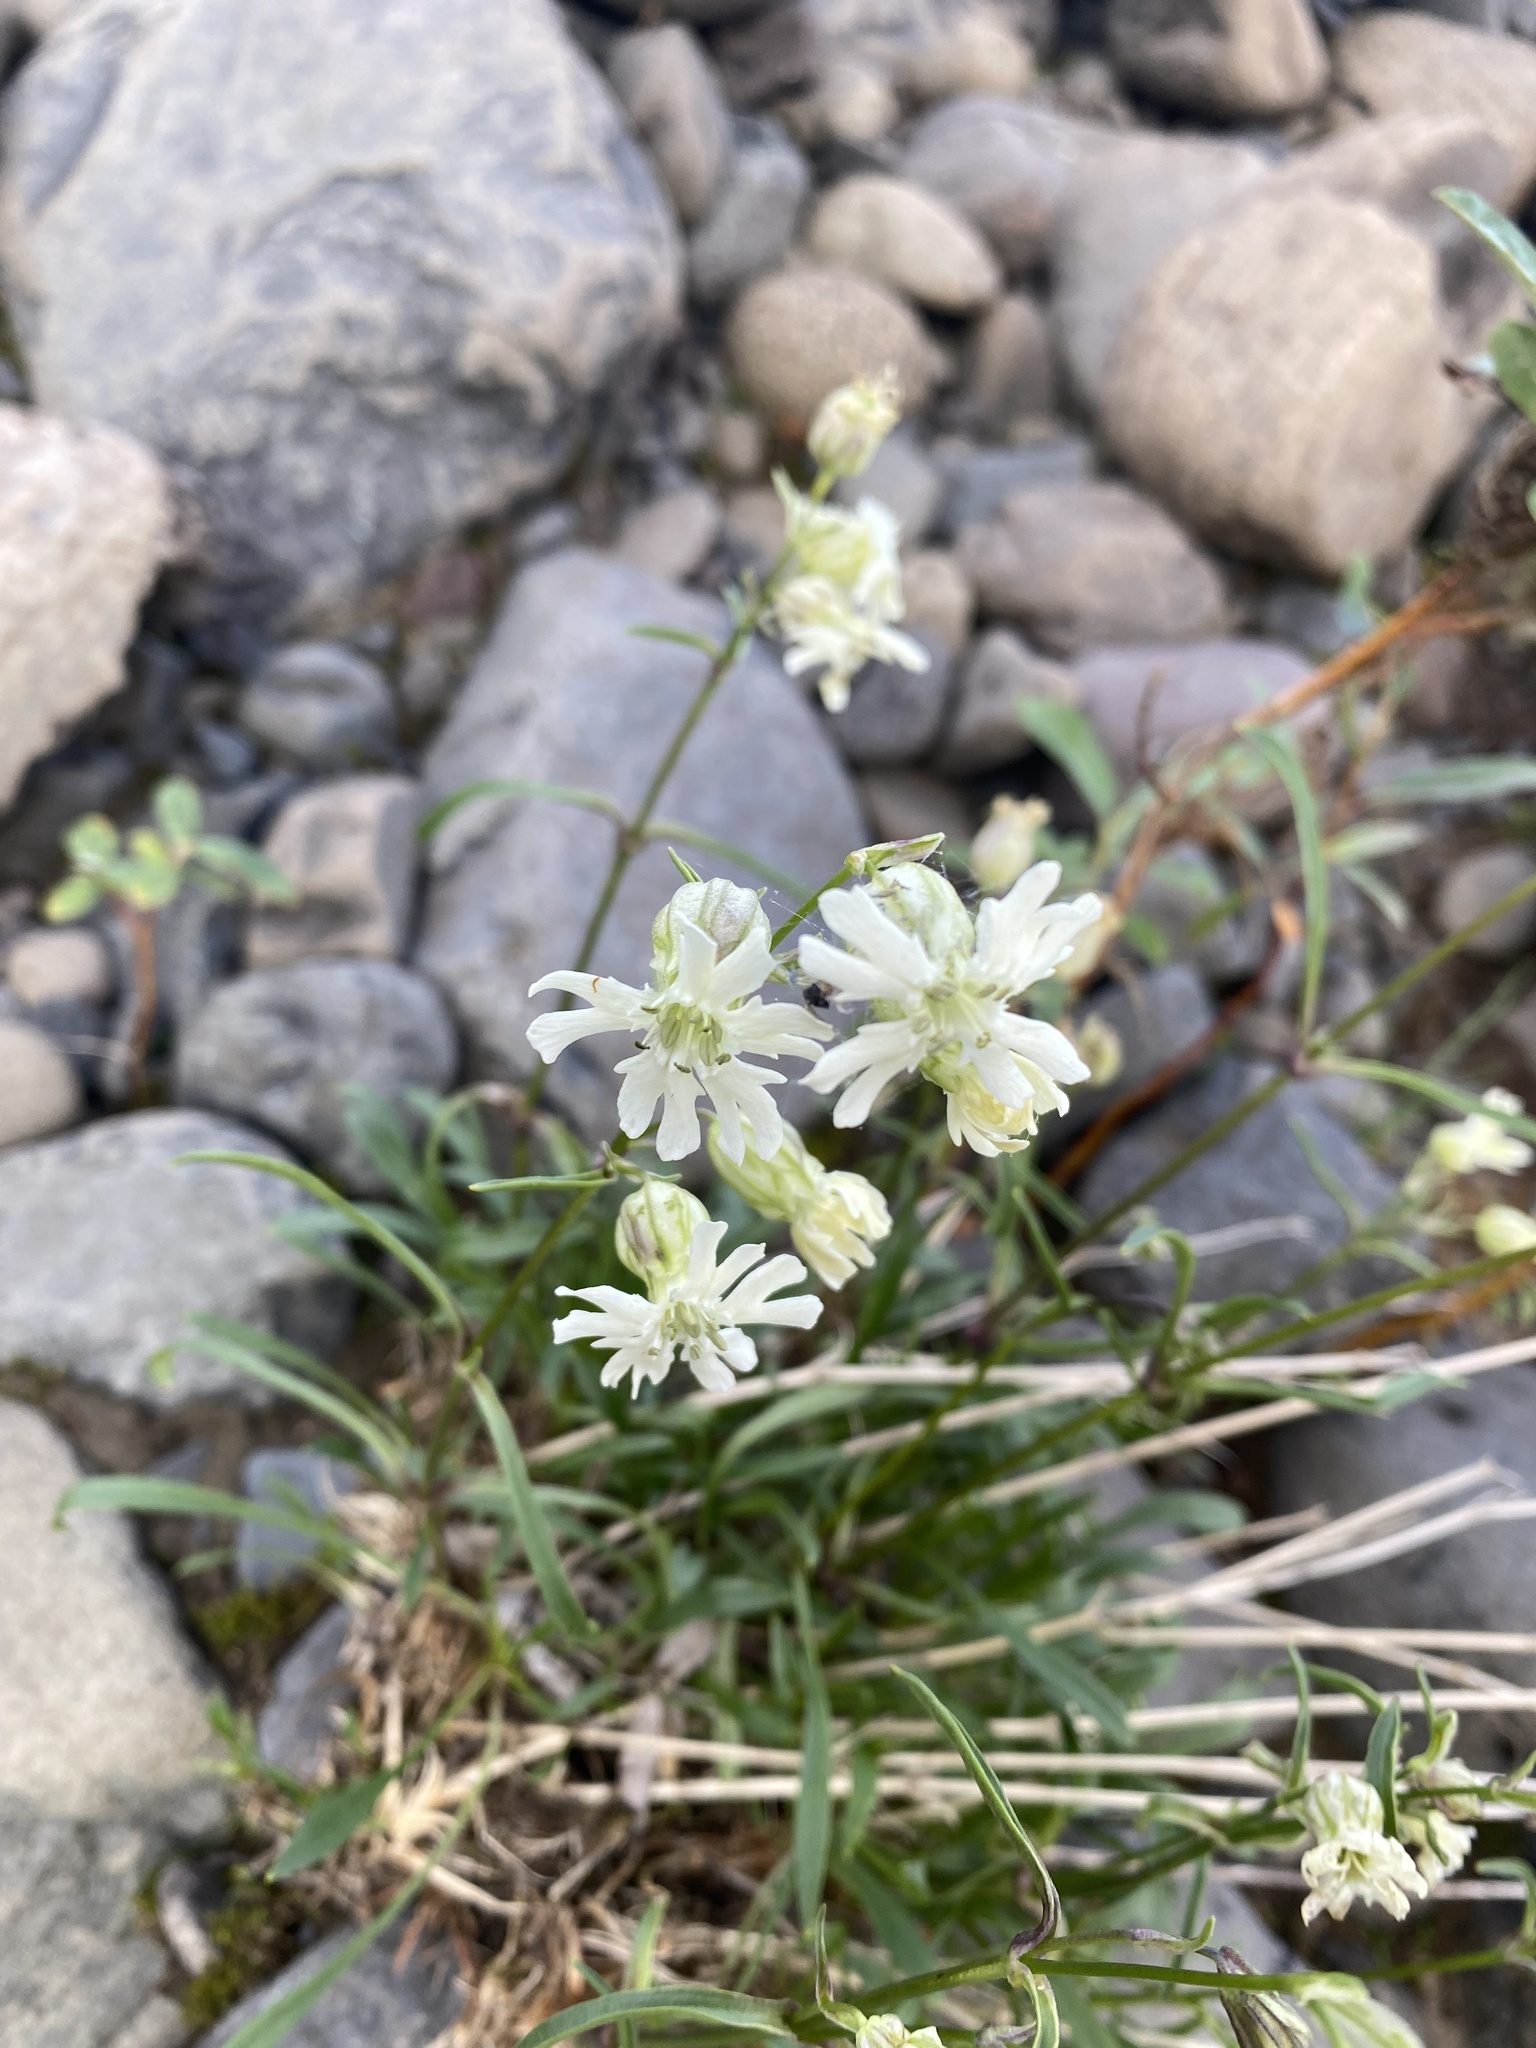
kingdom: Plantae
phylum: Tracheophyta
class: Magnoliopsida
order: Caryophyllales
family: Caryophyllaceae
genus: Silene
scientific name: Silene chamarensis
